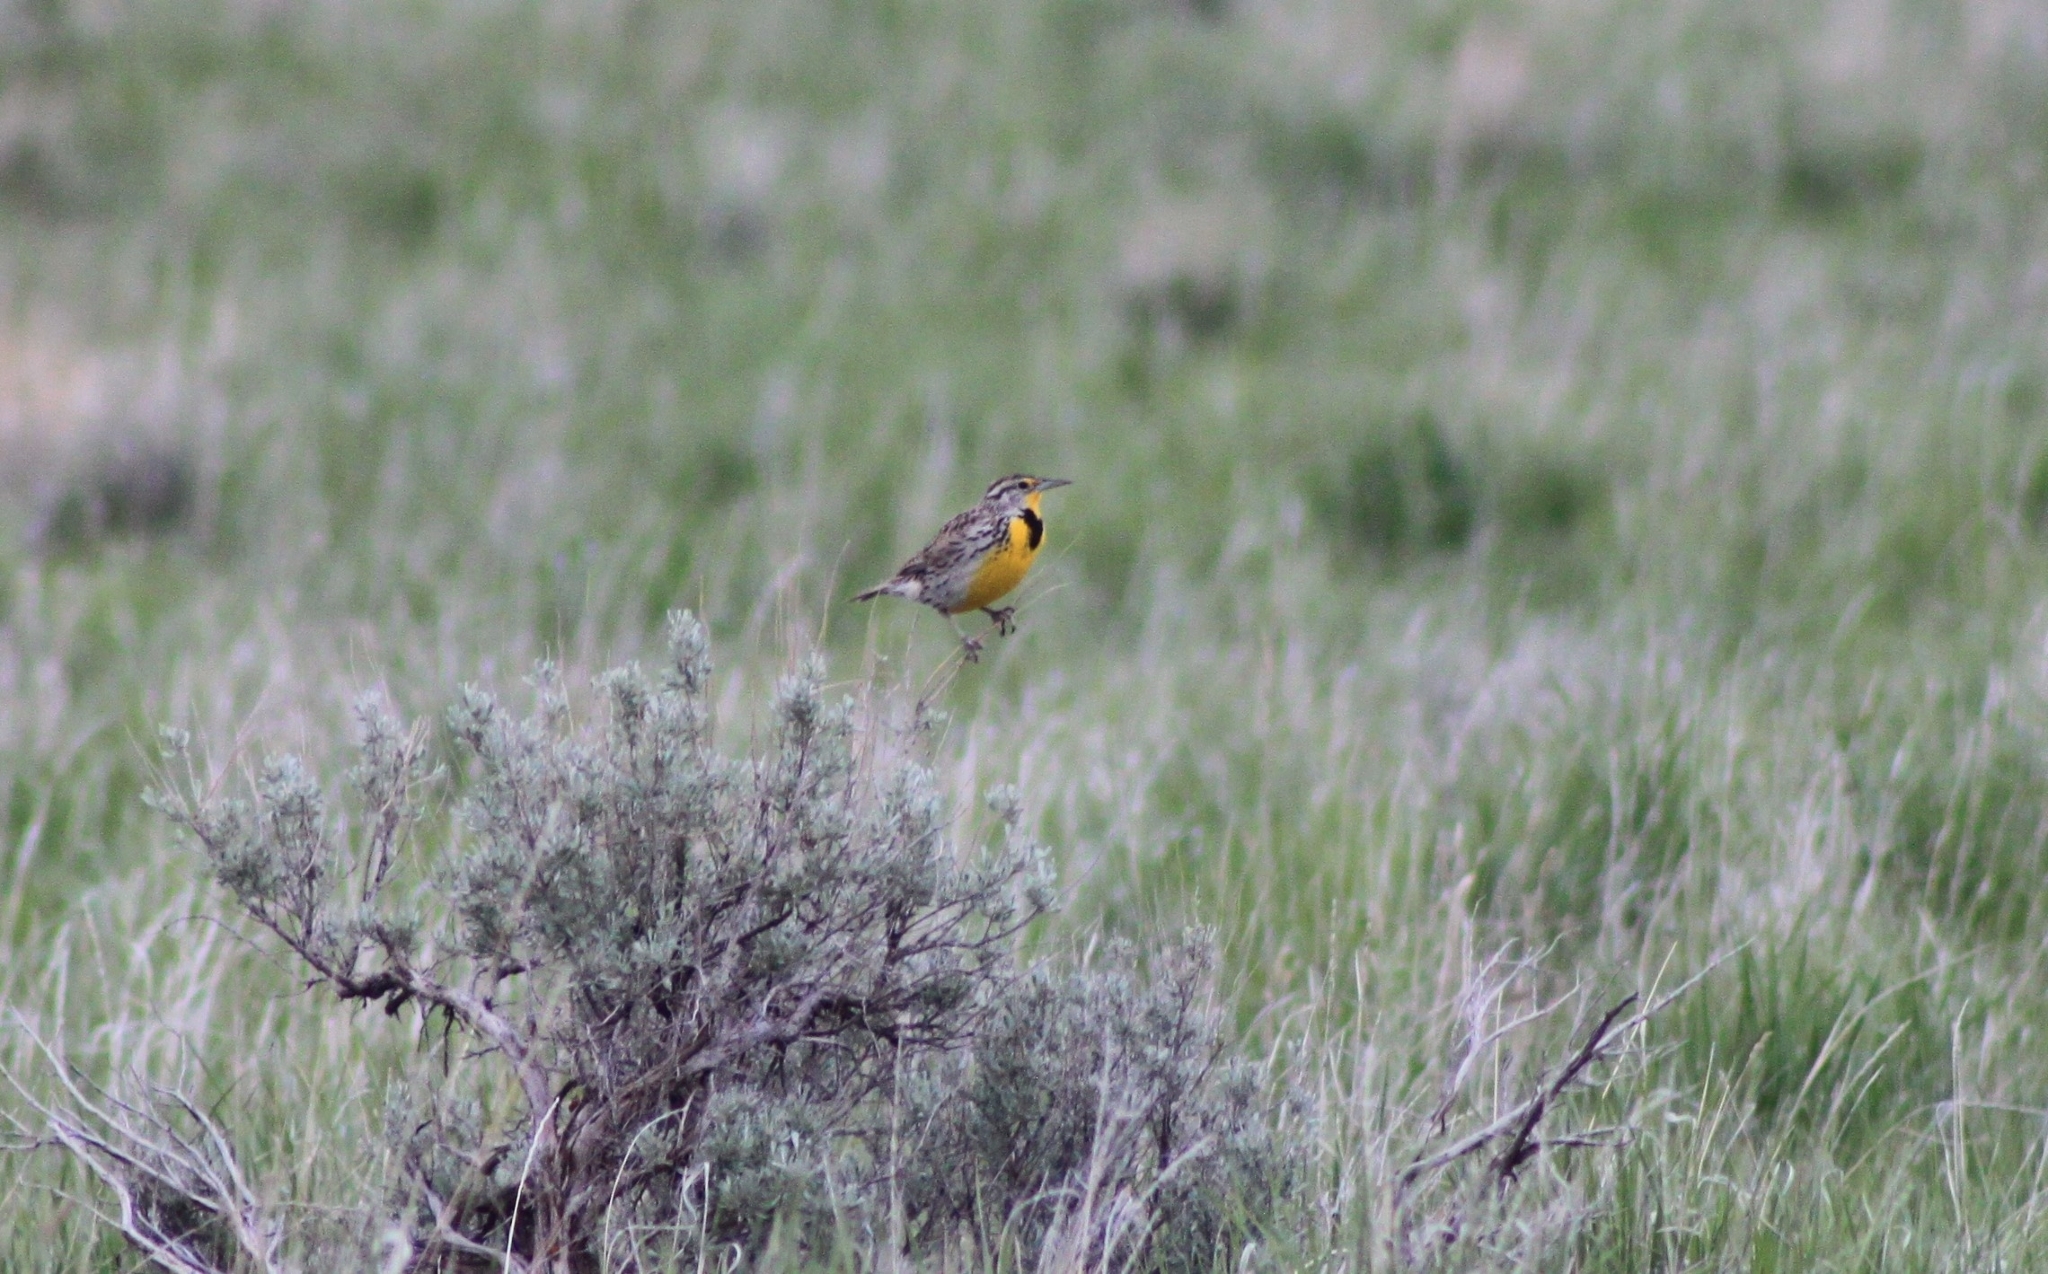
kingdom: Animalia
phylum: Chordata
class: Aves
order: Passeriformes
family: Icteridae
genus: Sturnella
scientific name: Sturnella neglecta
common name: Western meadowlark
